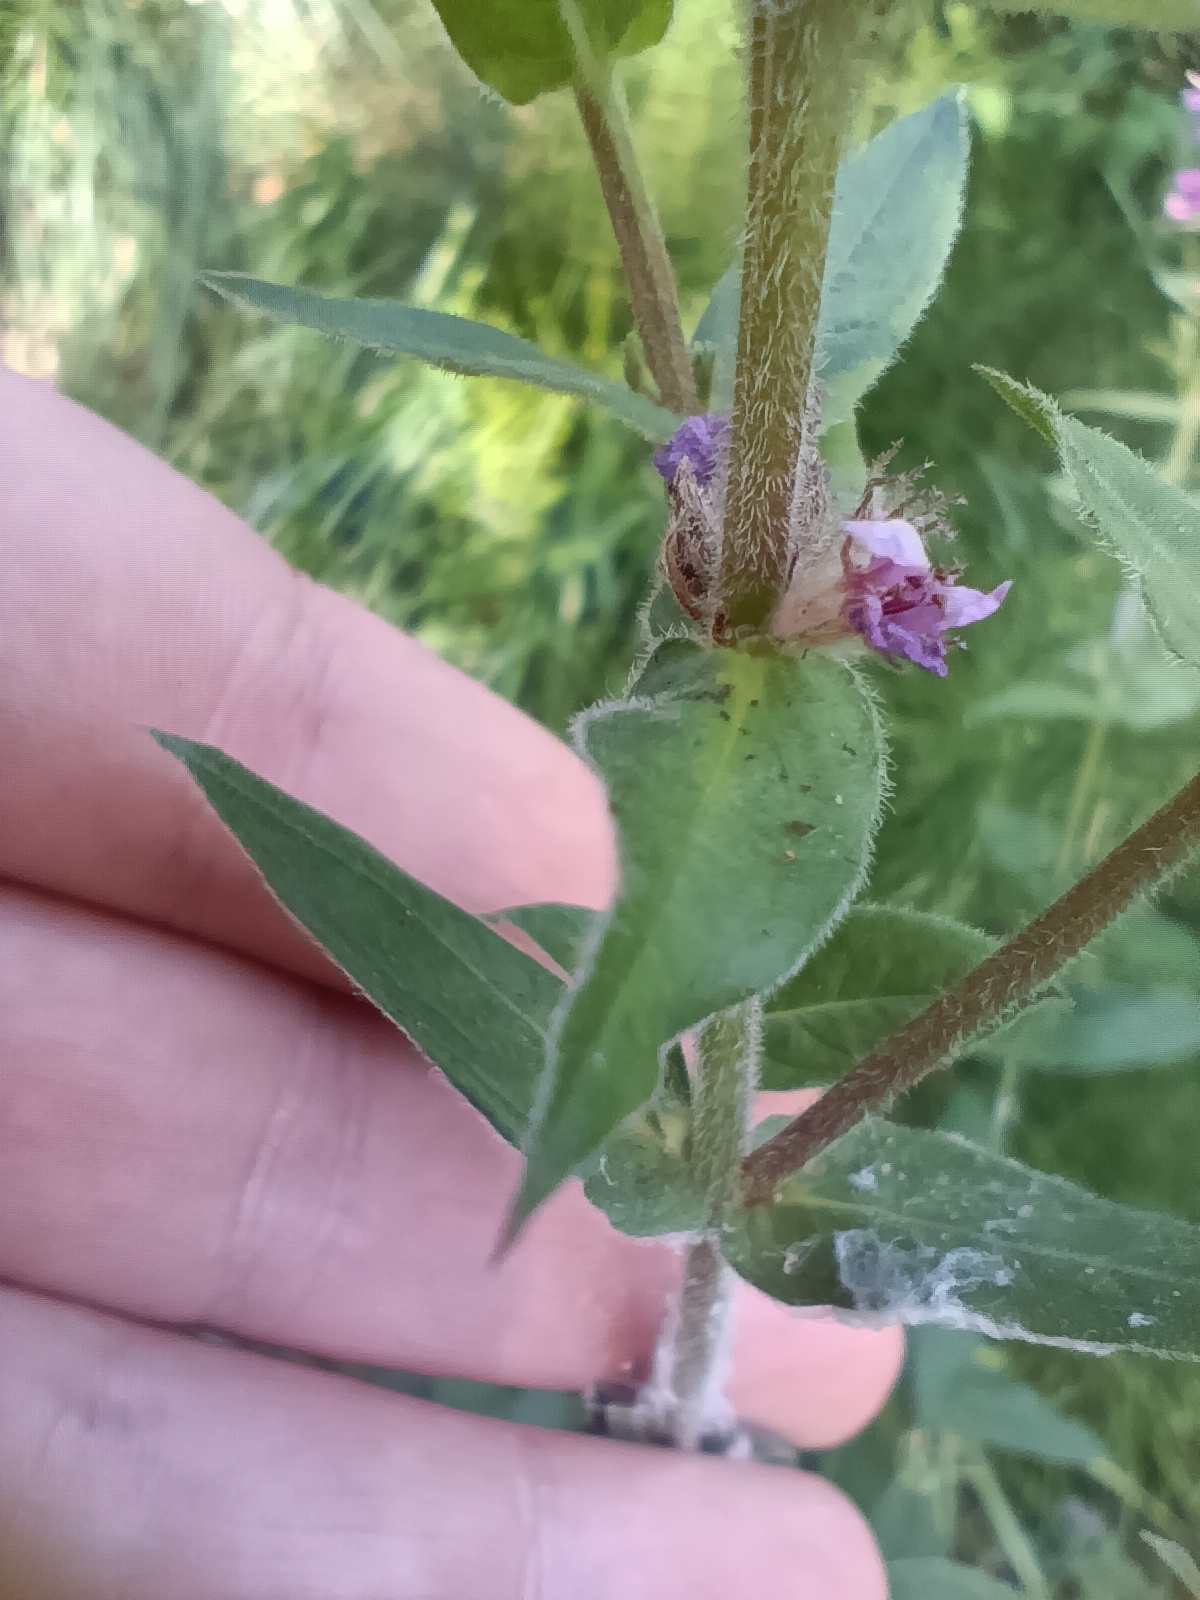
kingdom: Plantae
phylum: Tracheophyta
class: Magnoliopsida
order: Myrtales
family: Lythraceae
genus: Lythrum
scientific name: Lythrum salicaria
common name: Purple loosestrife
